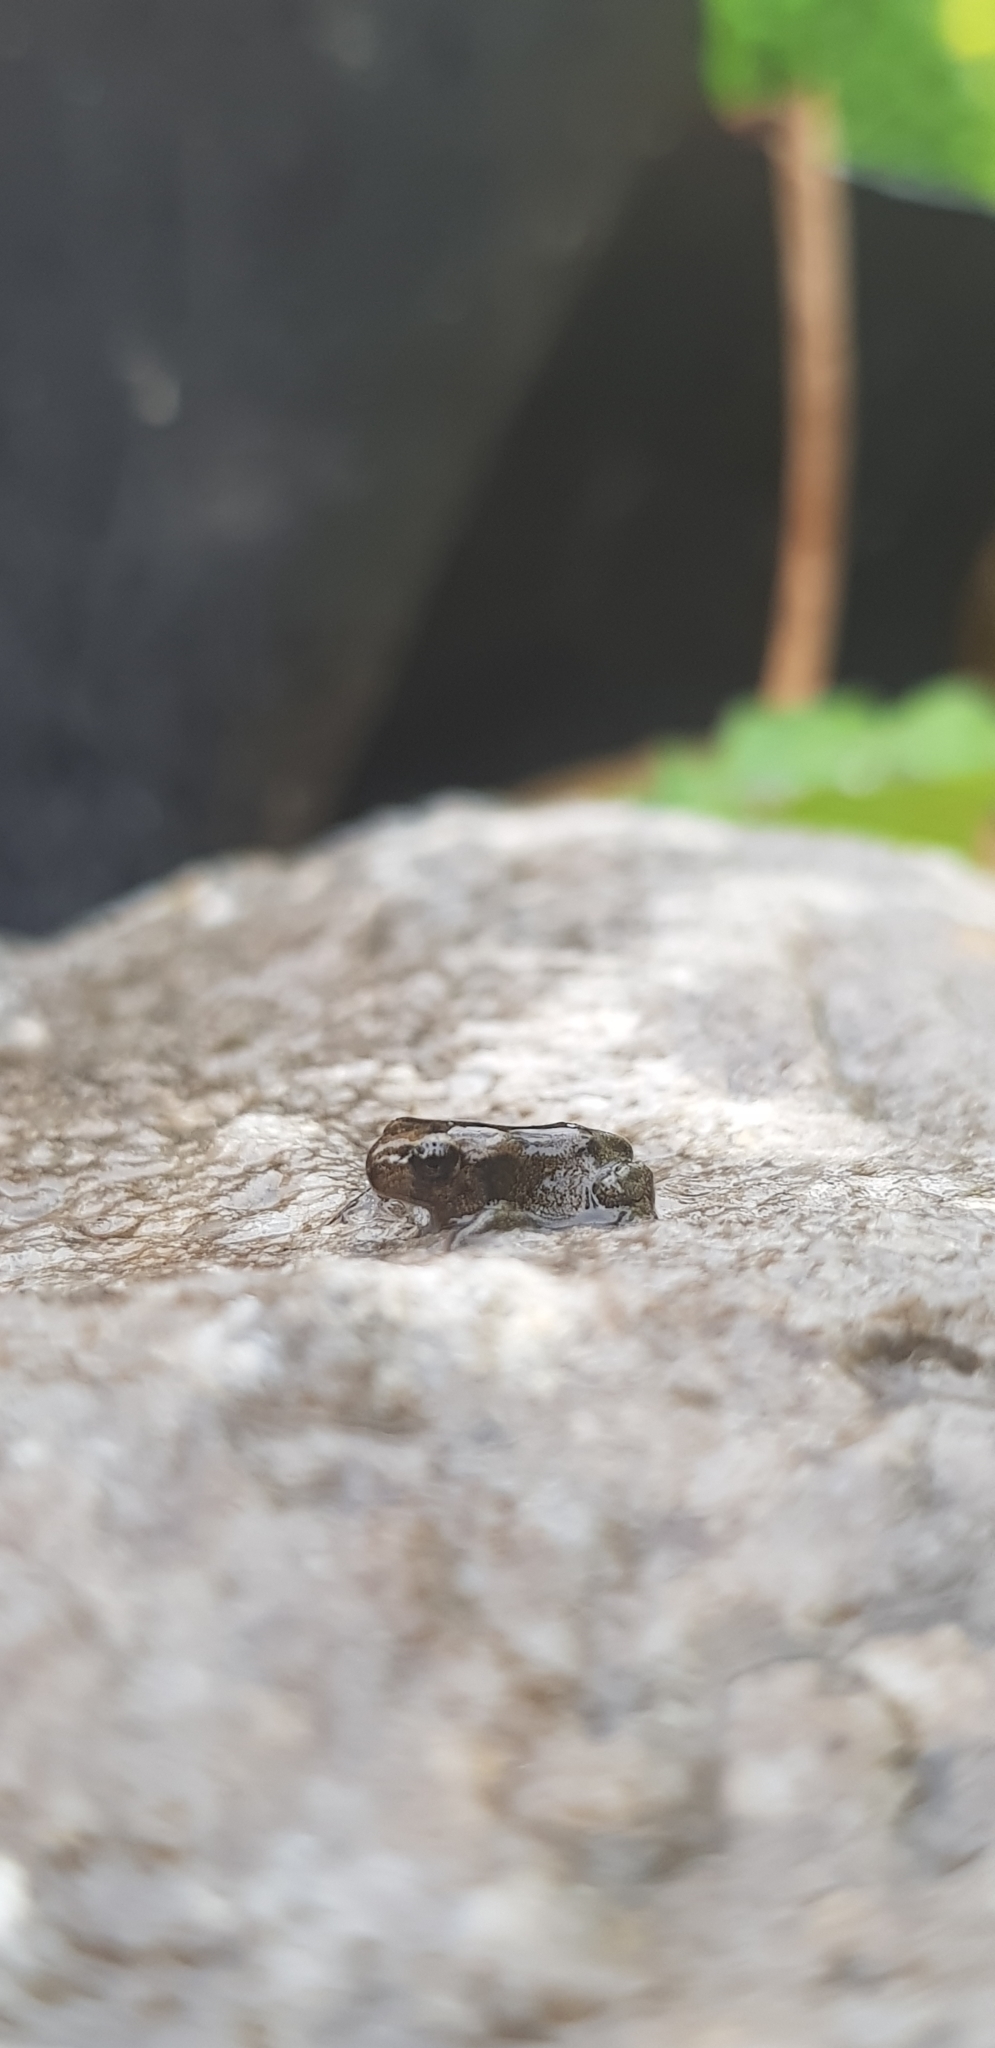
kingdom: Animalia
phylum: Chordata
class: Amphibia
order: Anura
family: Bufonidae
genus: Bufo
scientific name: Bufo bufo
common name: Common toad
